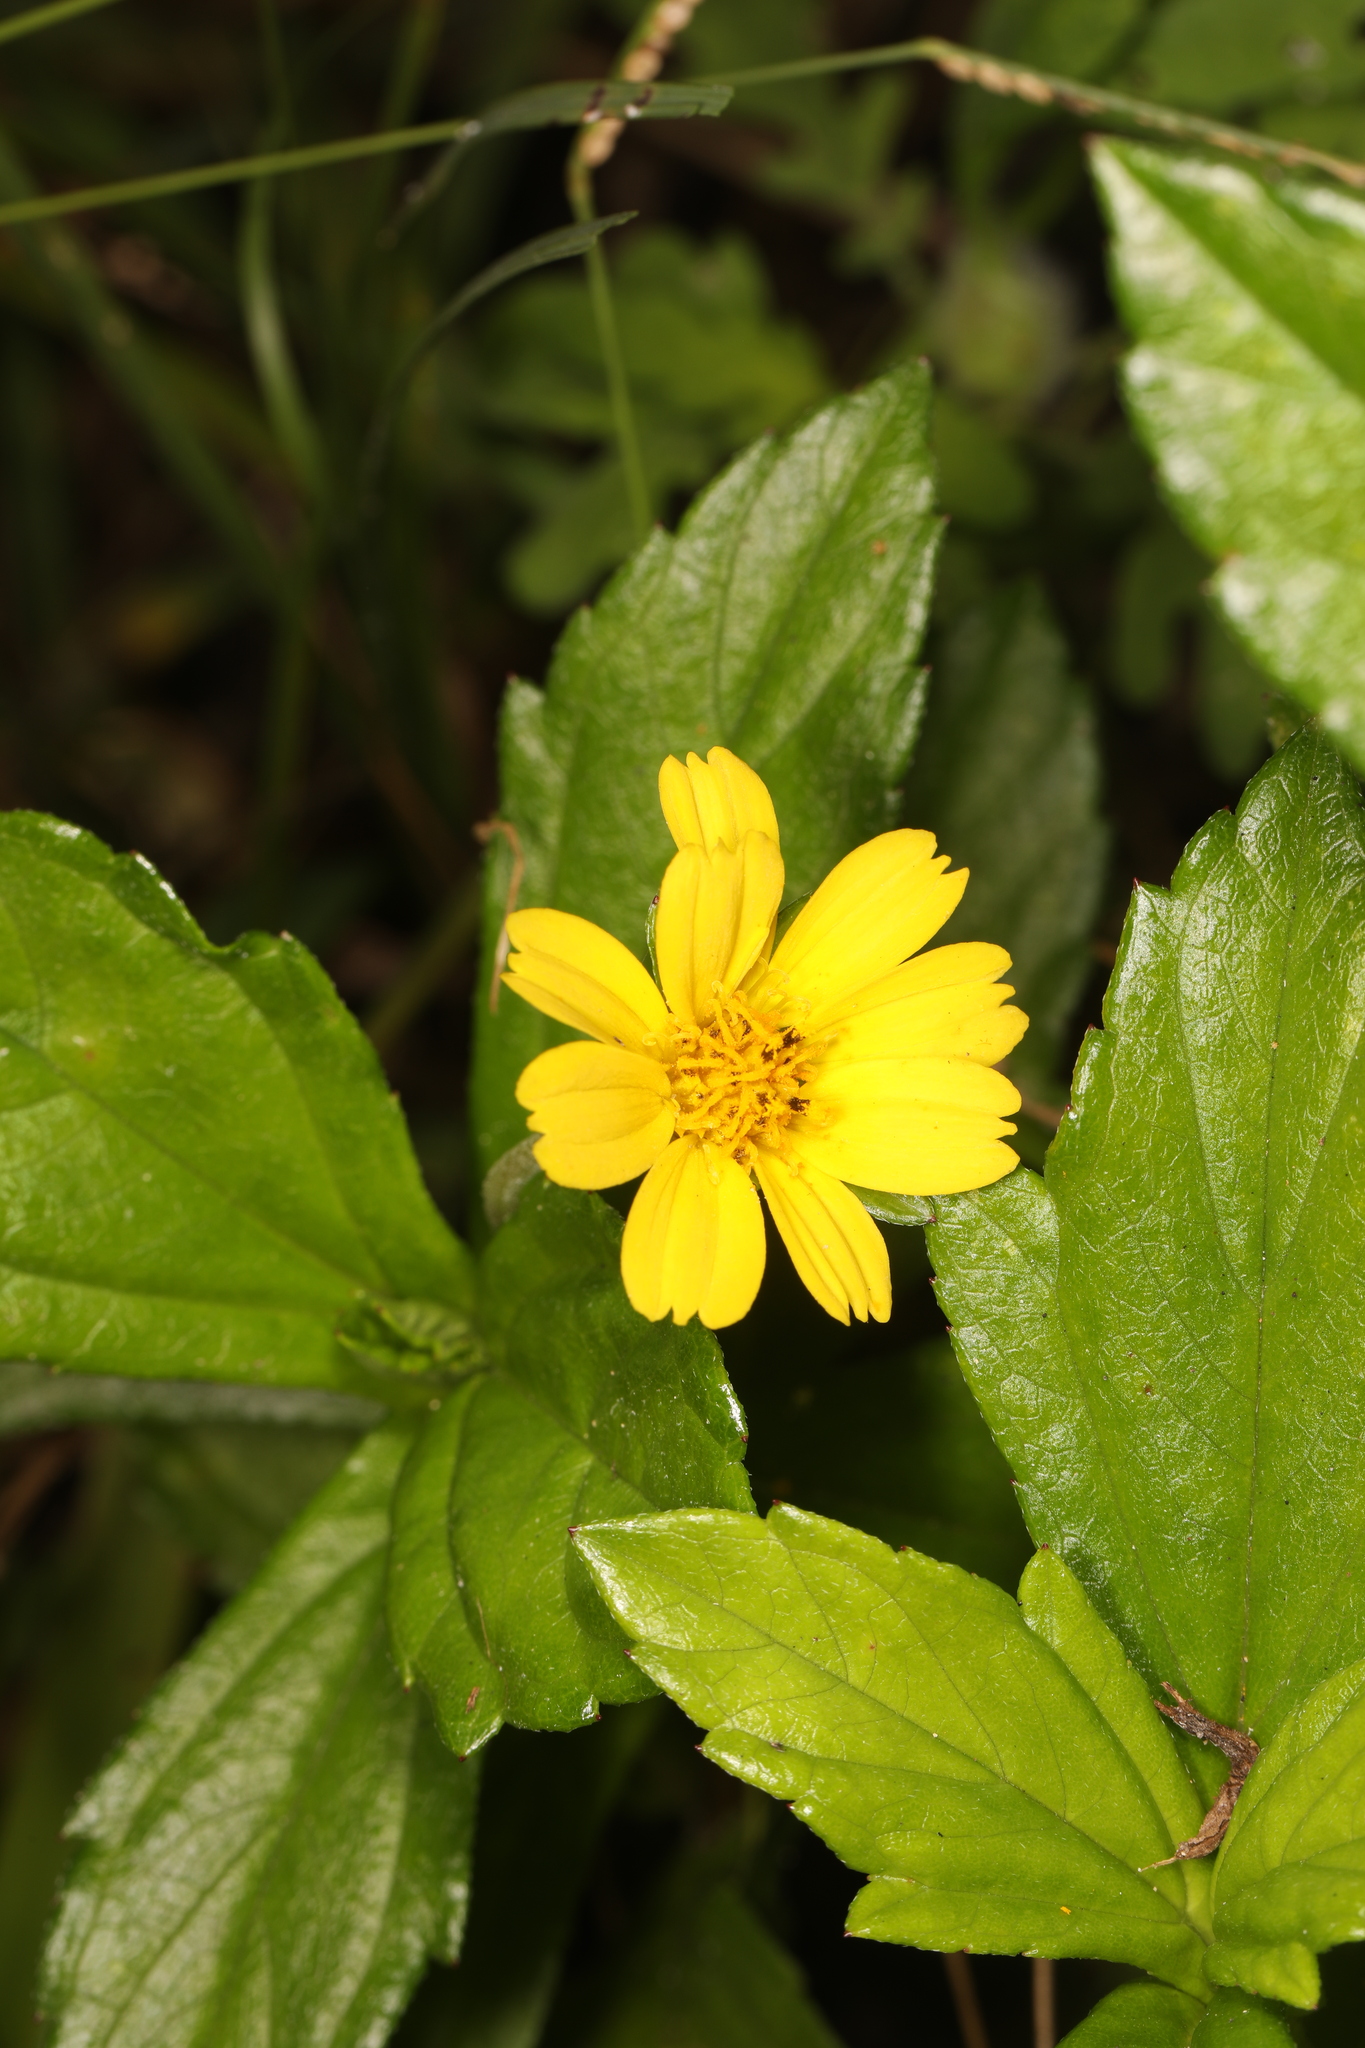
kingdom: Plantae
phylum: Tracheophyta
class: Magnoliopsida
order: Asterales
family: Asteraceae
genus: Sphagneticola
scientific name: Sphagneticola trilobata
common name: Bay biscayne creeping-oxeye
